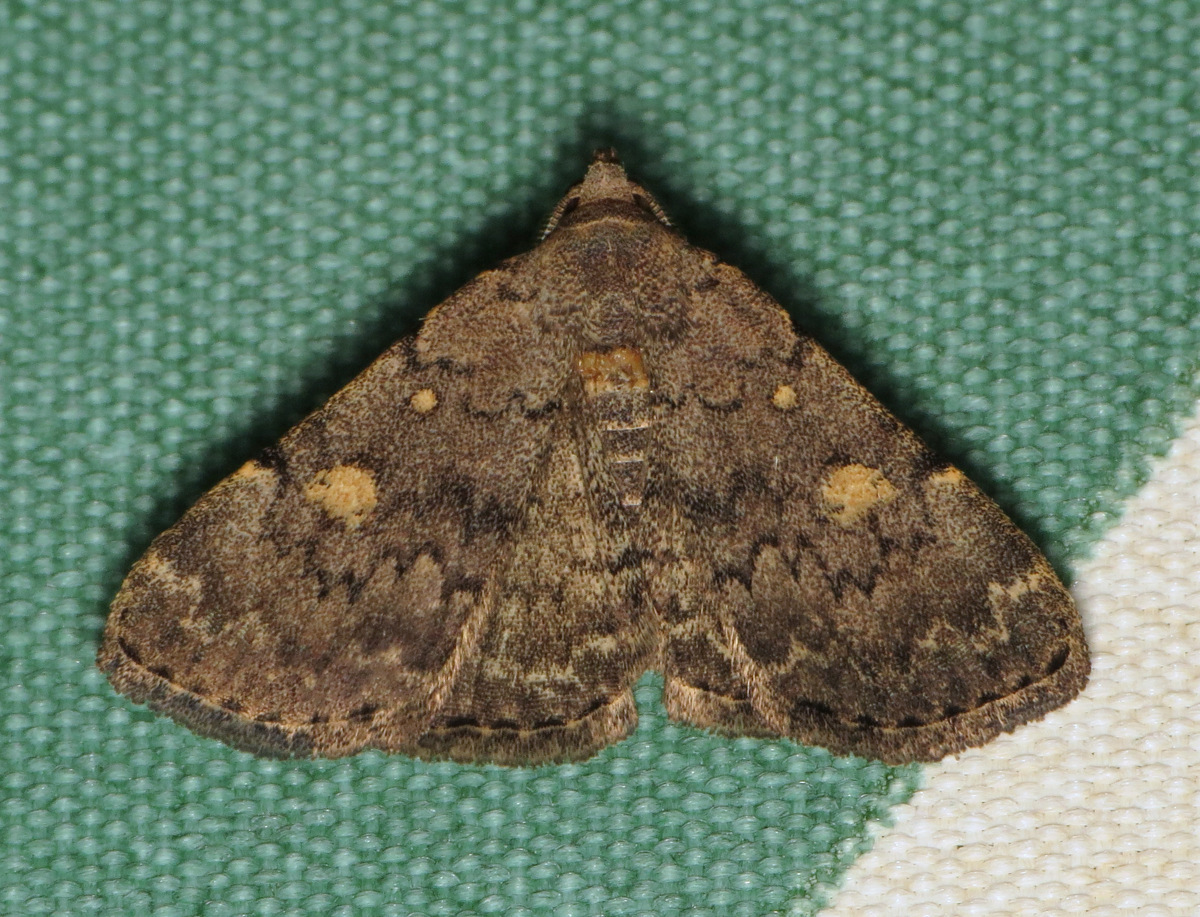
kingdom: Animalia
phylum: Arthropoda
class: Insecta
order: Lepidoptera
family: Erebidae
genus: Idia
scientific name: Idia aemula
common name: Common idia moth
